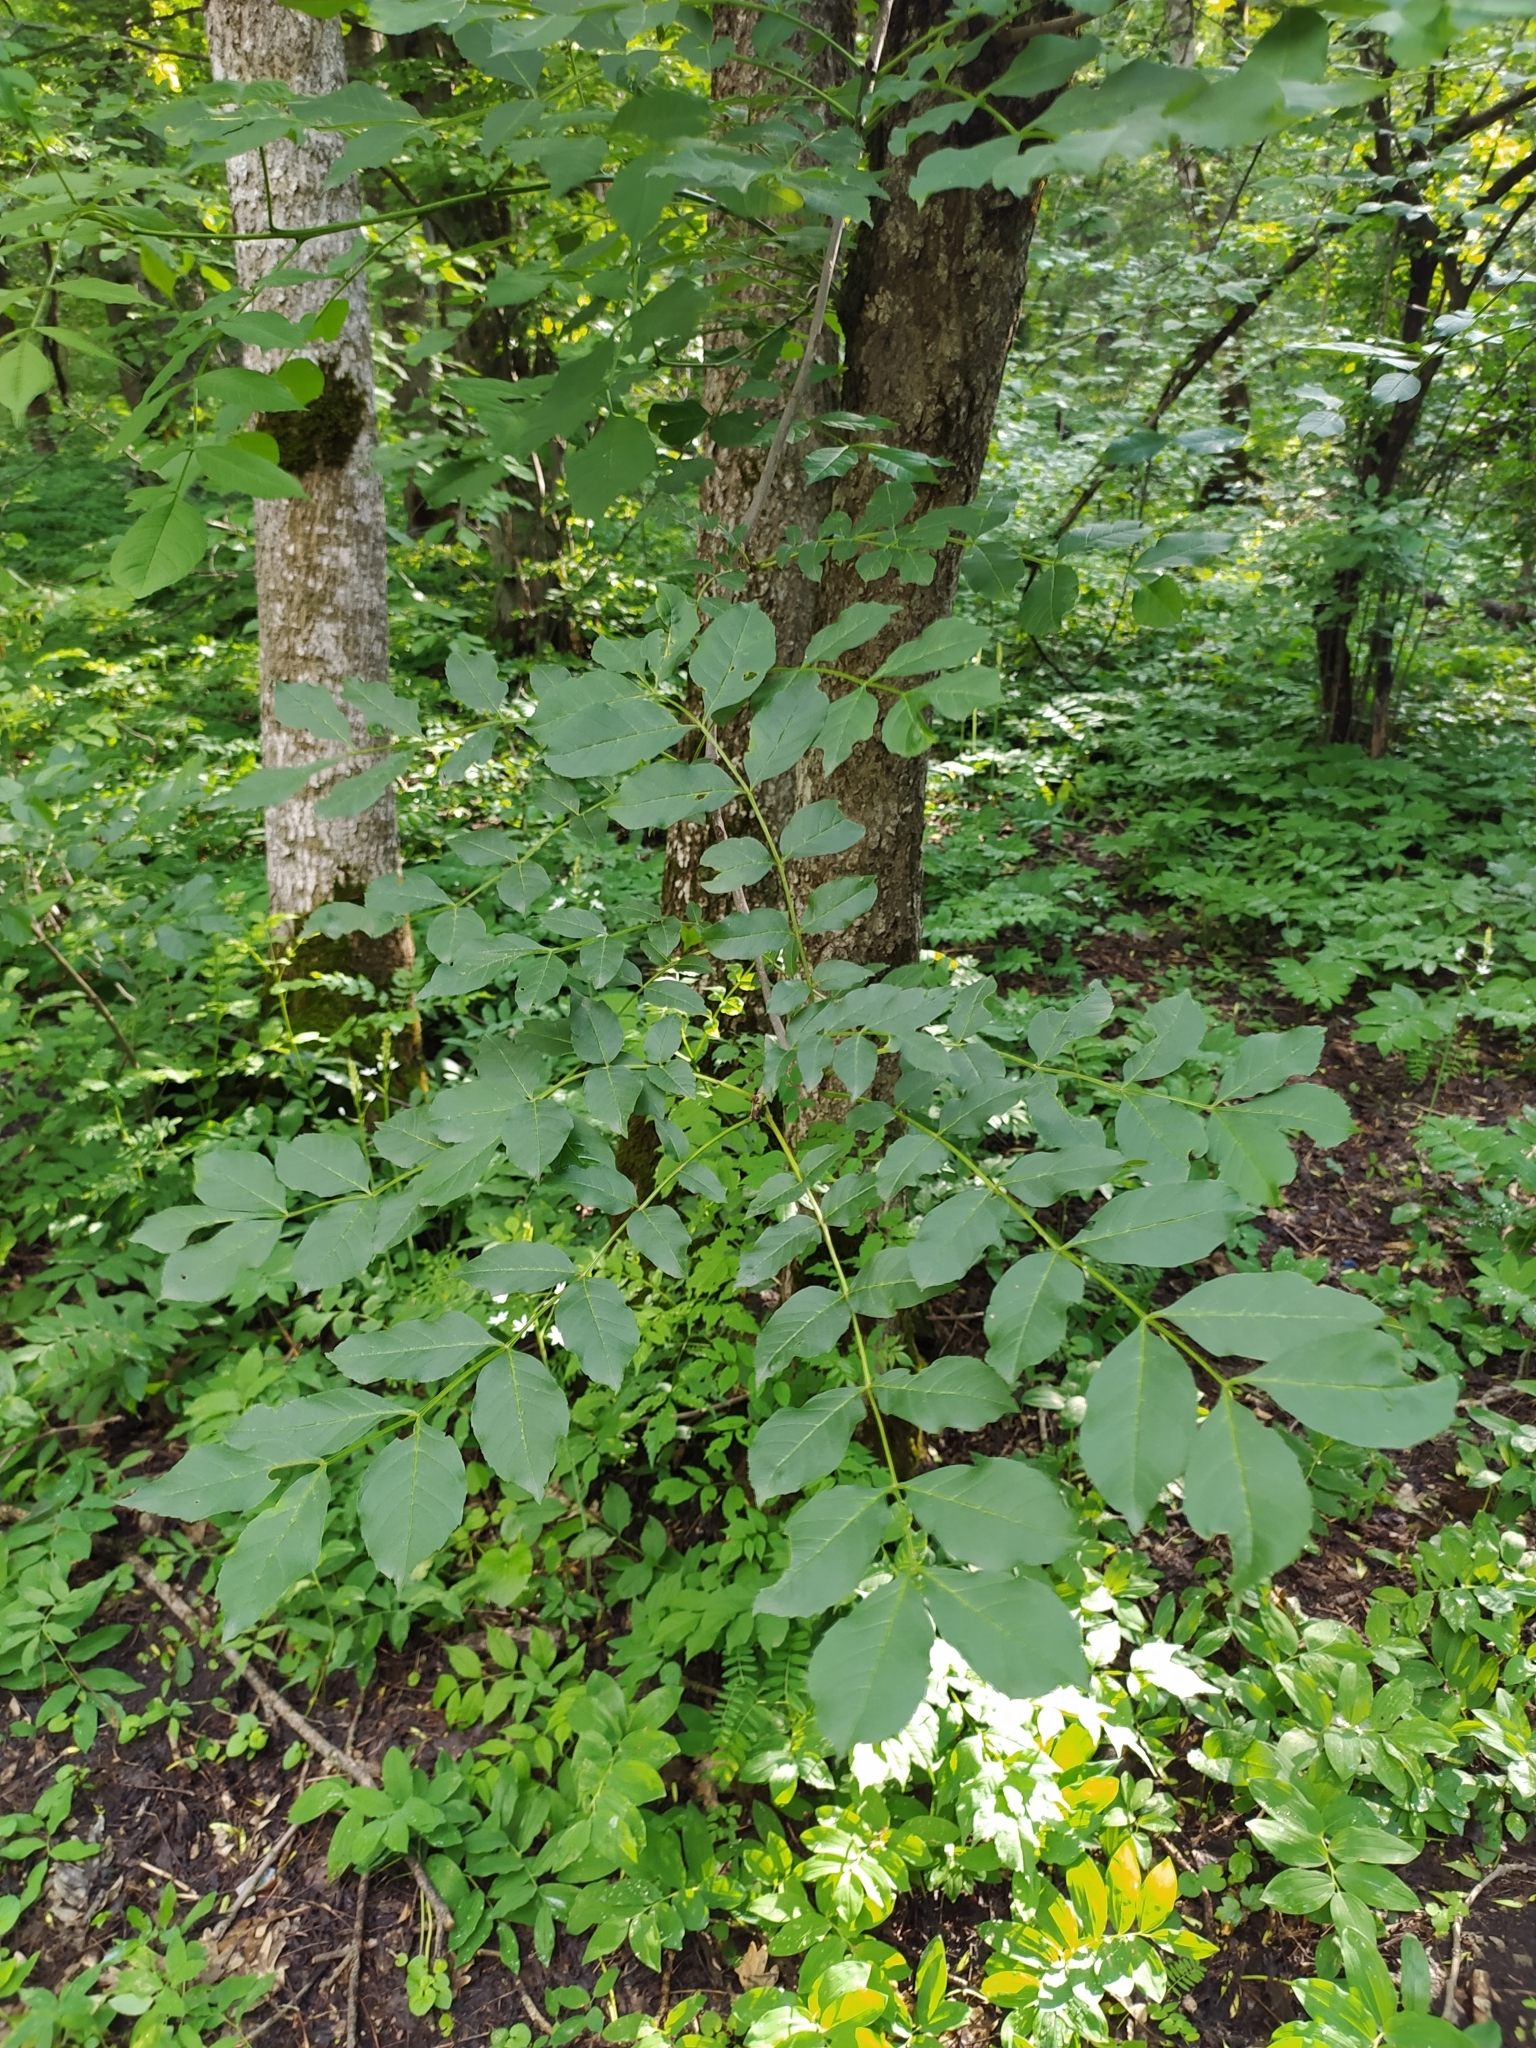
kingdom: Plantae
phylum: Tracheophyta
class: Magnoliopsida
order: Lamiales
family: Oleaceae
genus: Fraxinus
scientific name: Fraxinus excelsior
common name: European ash
